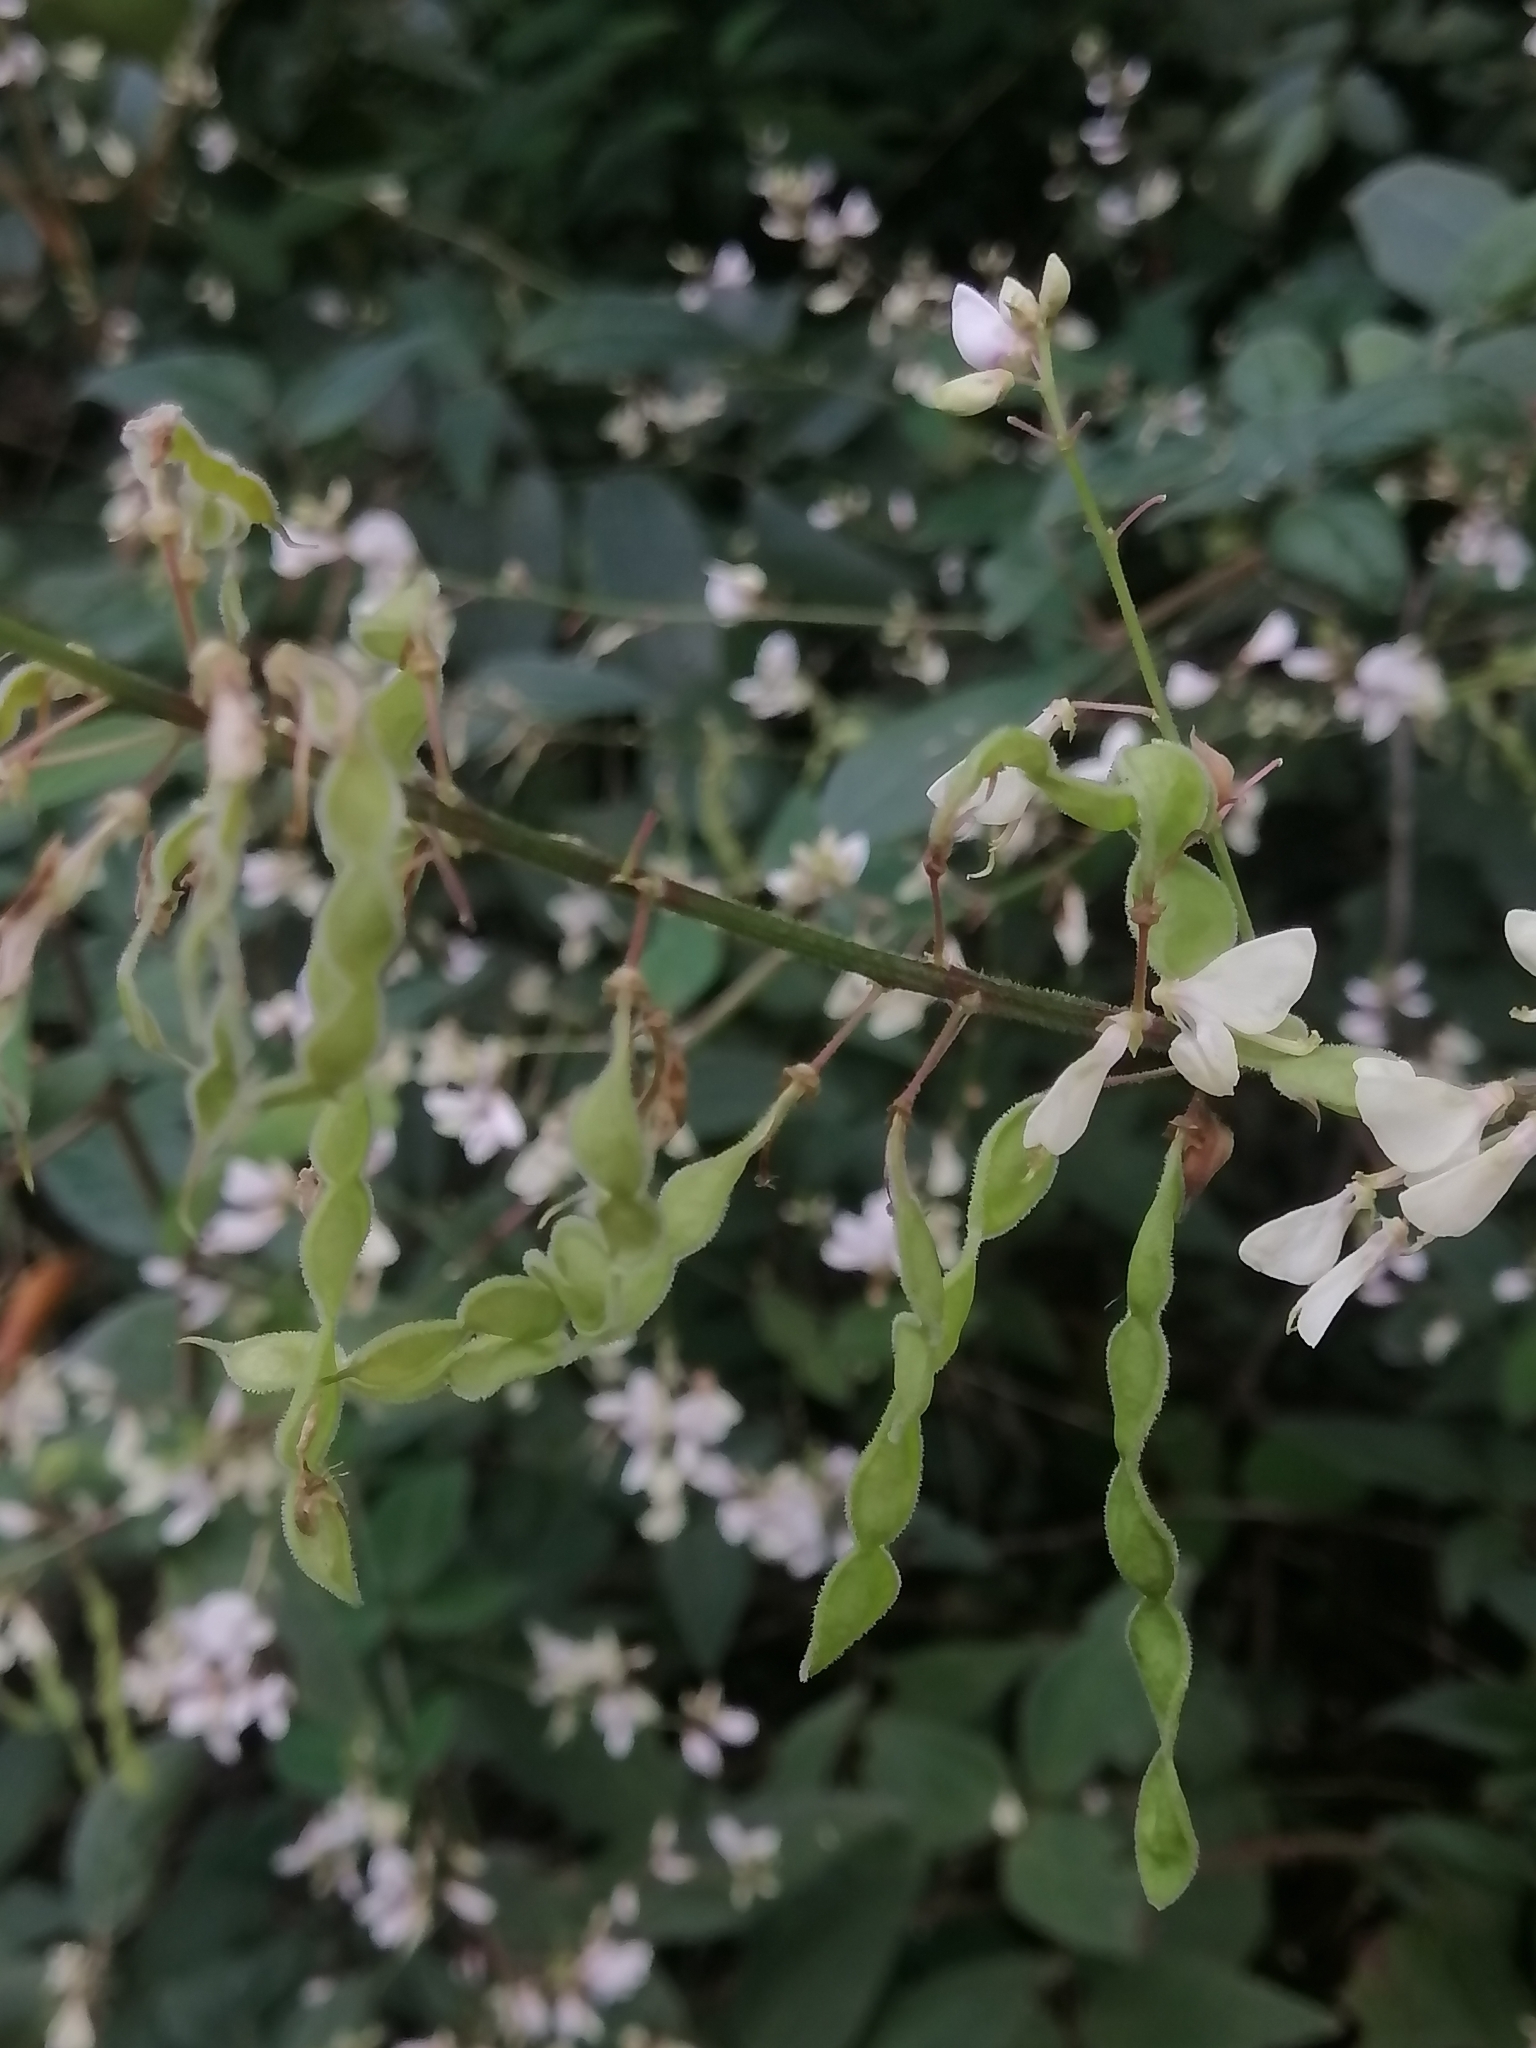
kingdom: Plantae
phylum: Tracheophyta
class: Magnoliopsida
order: Fabales
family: Fabaceae
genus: Desmodium
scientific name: Desmodium lindheimeri
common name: Lindheimer's tick-trefoil
